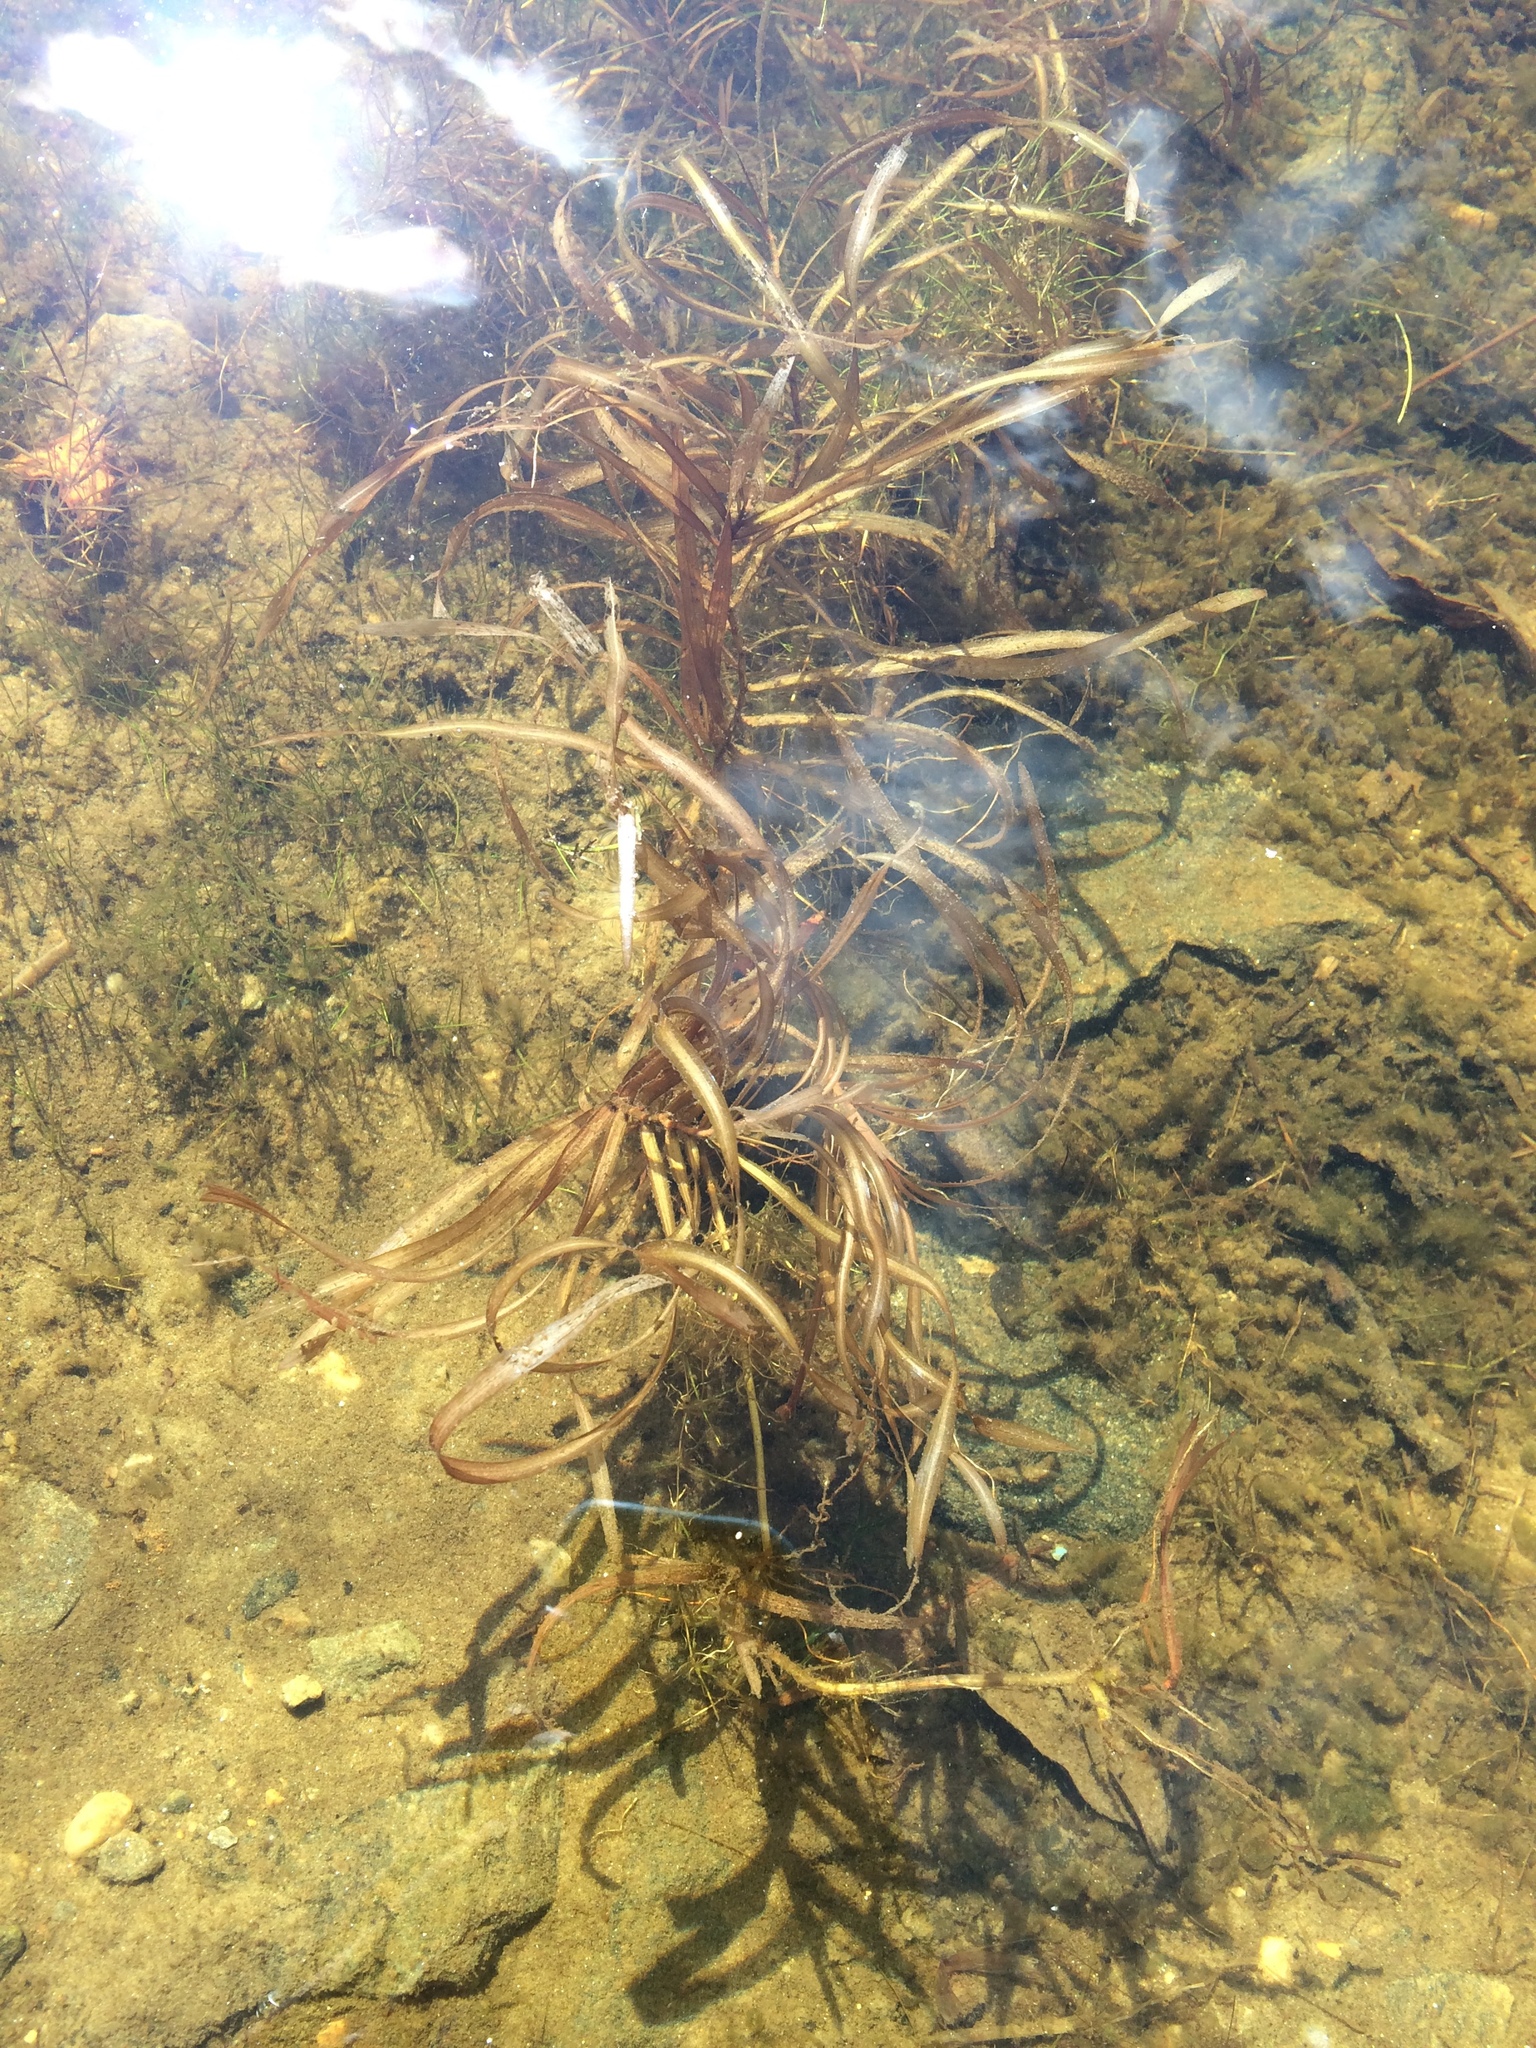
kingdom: Plantae
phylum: Tracheophyta
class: Liliopsida
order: Alismatales
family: Potamogetonaceae
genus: Potamogeton
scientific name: Potamogeton epihydrus
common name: American pondweed
